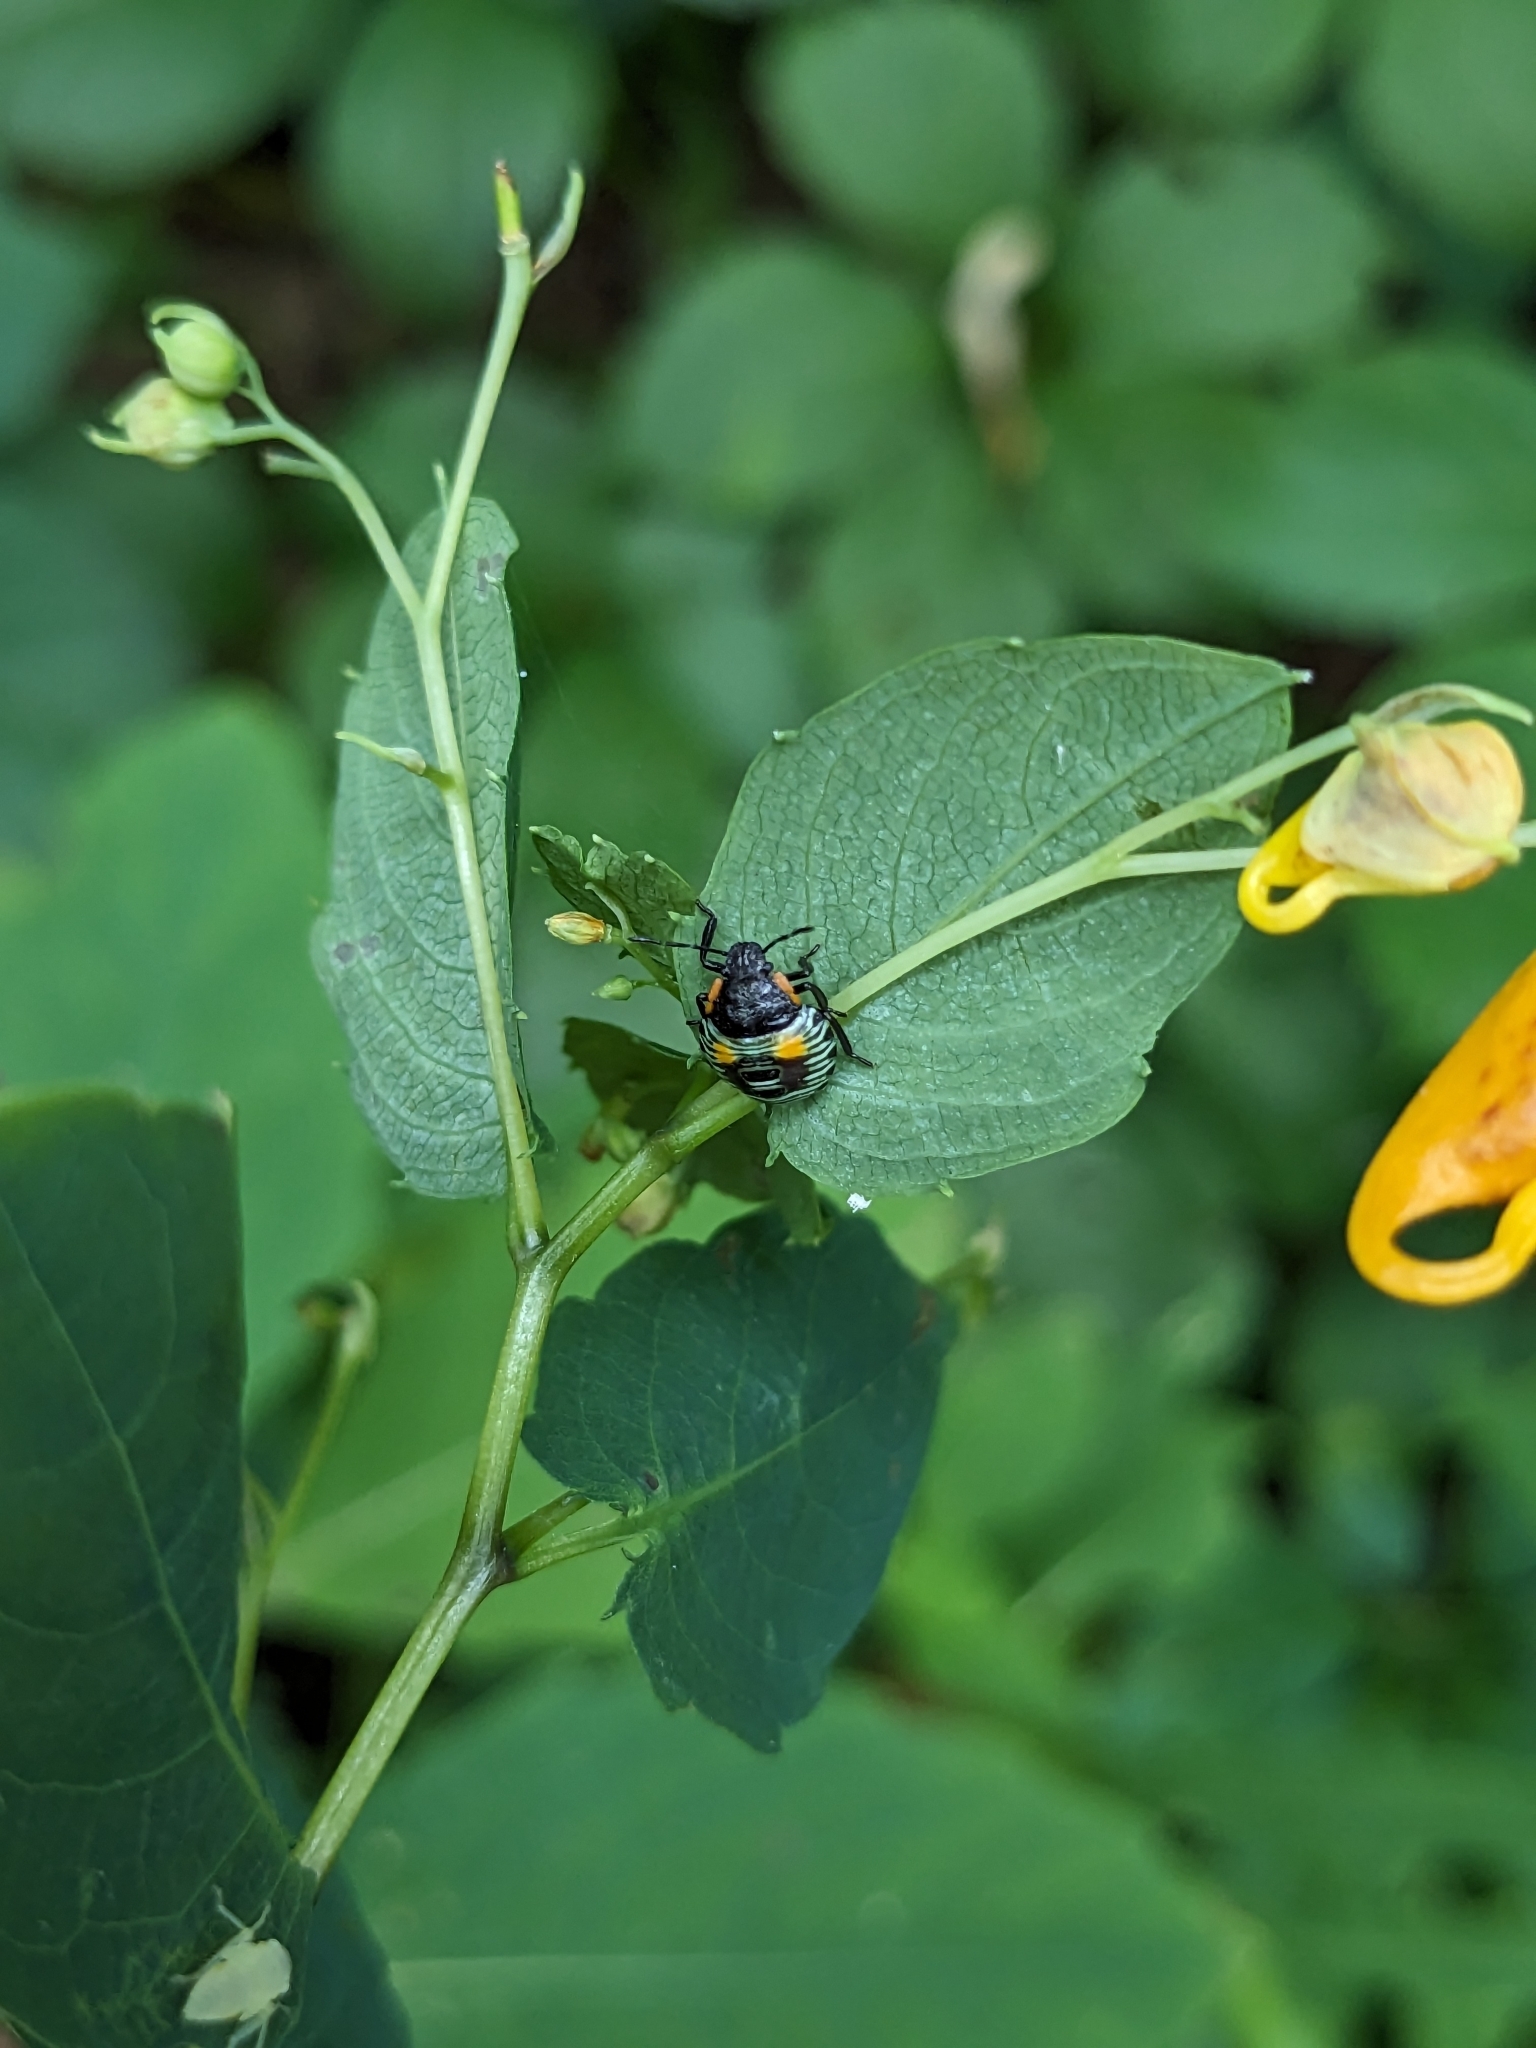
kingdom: Animalia
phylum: Arthropoda
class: Insecta
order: Hemiptera
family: Pentatomidae
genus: Chinavia
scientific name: Chinavia hilaris
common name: Green stink bug
